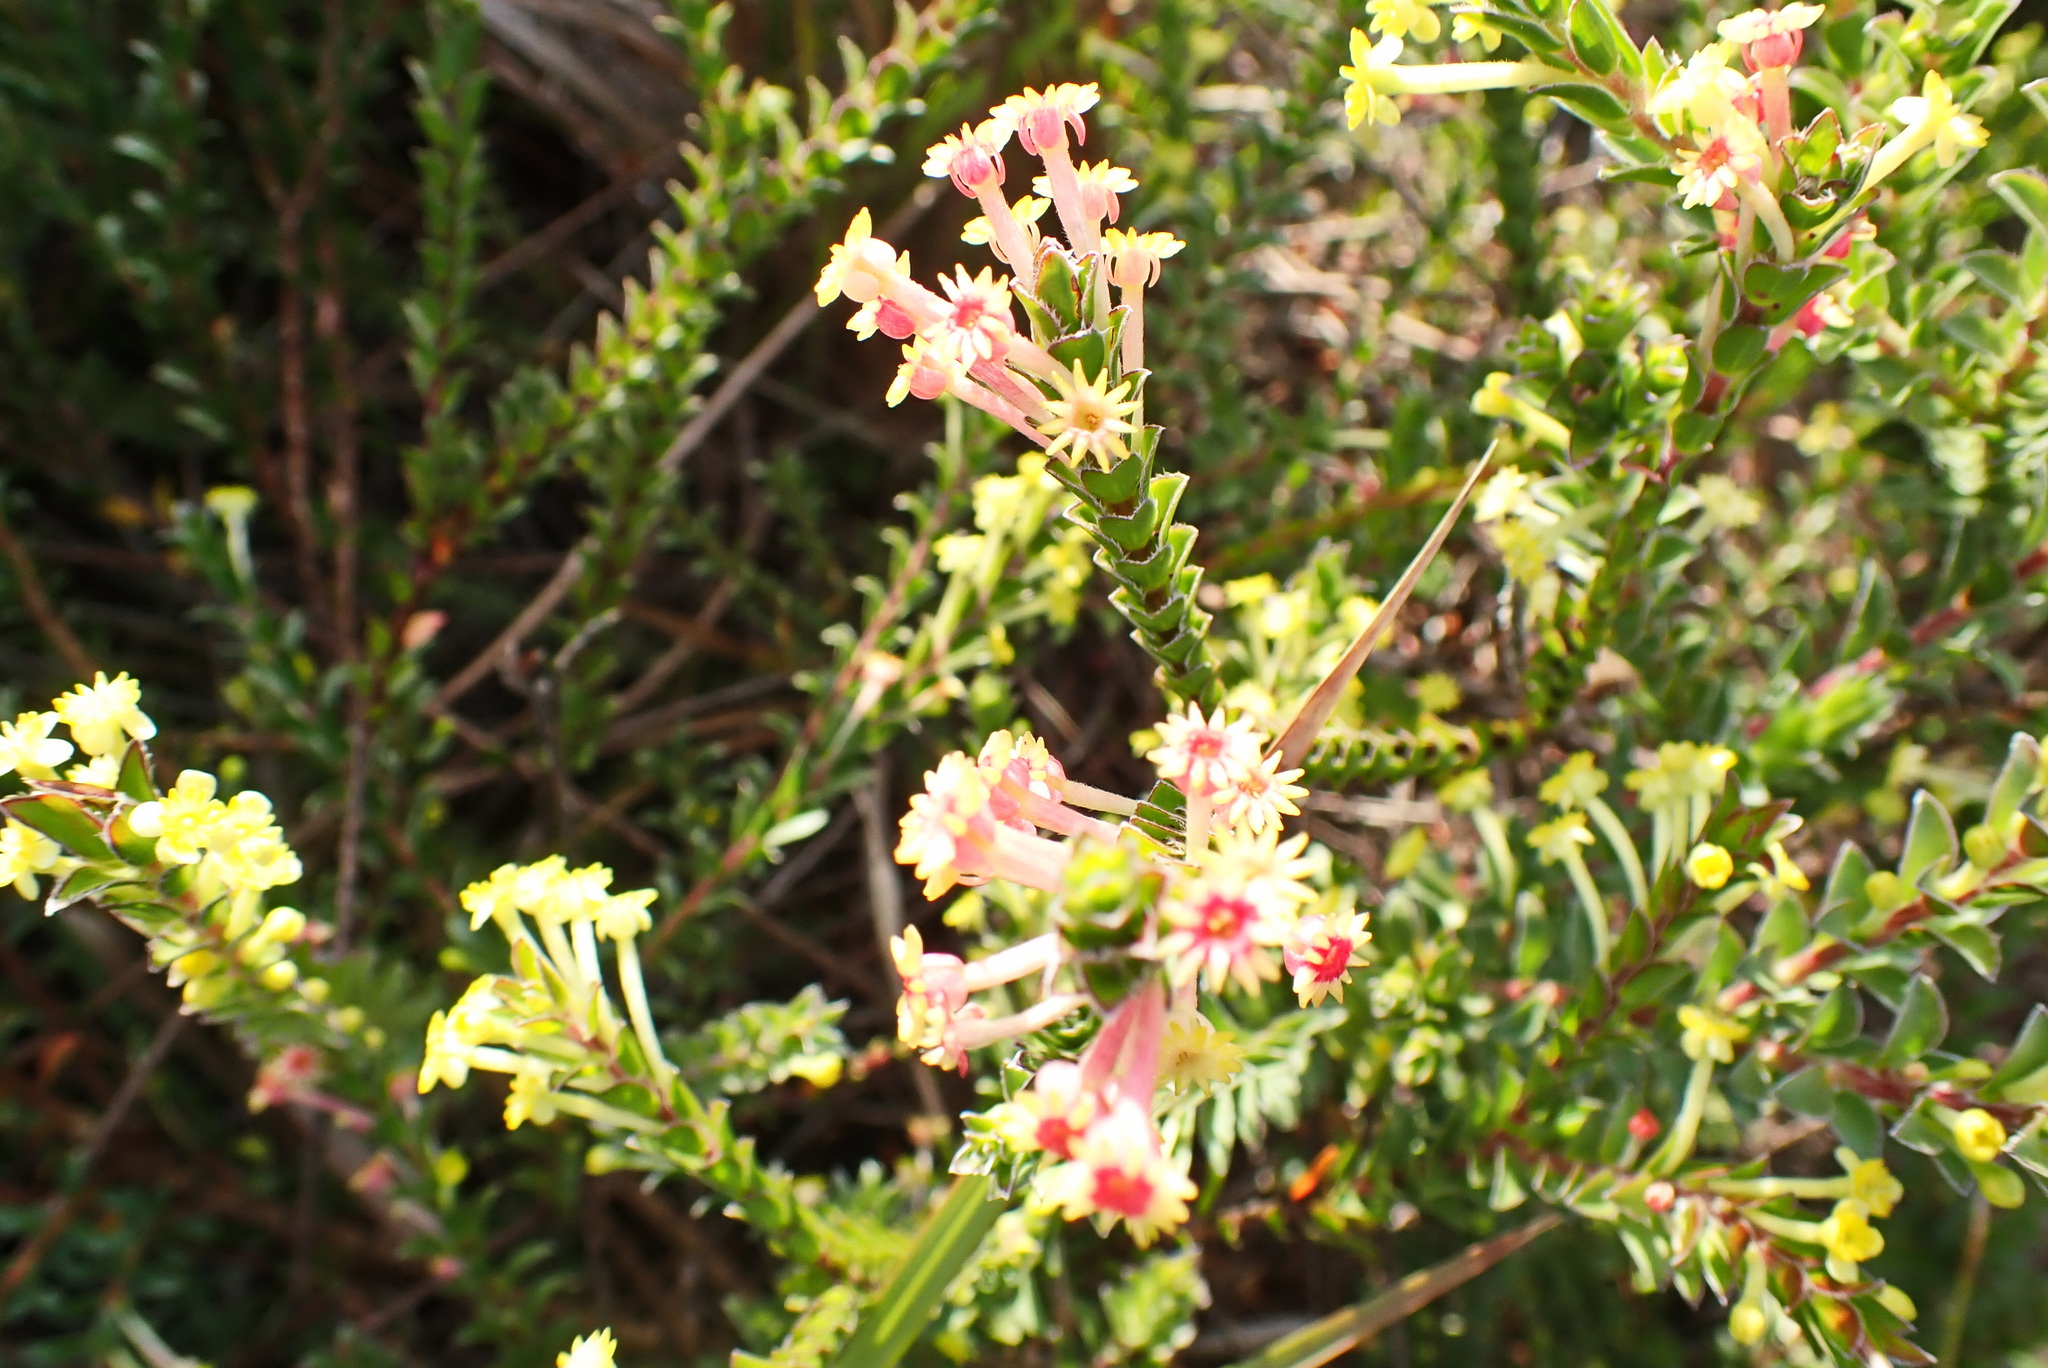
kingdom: Plantae
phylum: Tracheophyta
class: Magnoliopsida
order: Malvales
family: Thymelaeaceae
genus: Struthiola
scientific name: Struthiola argentea
